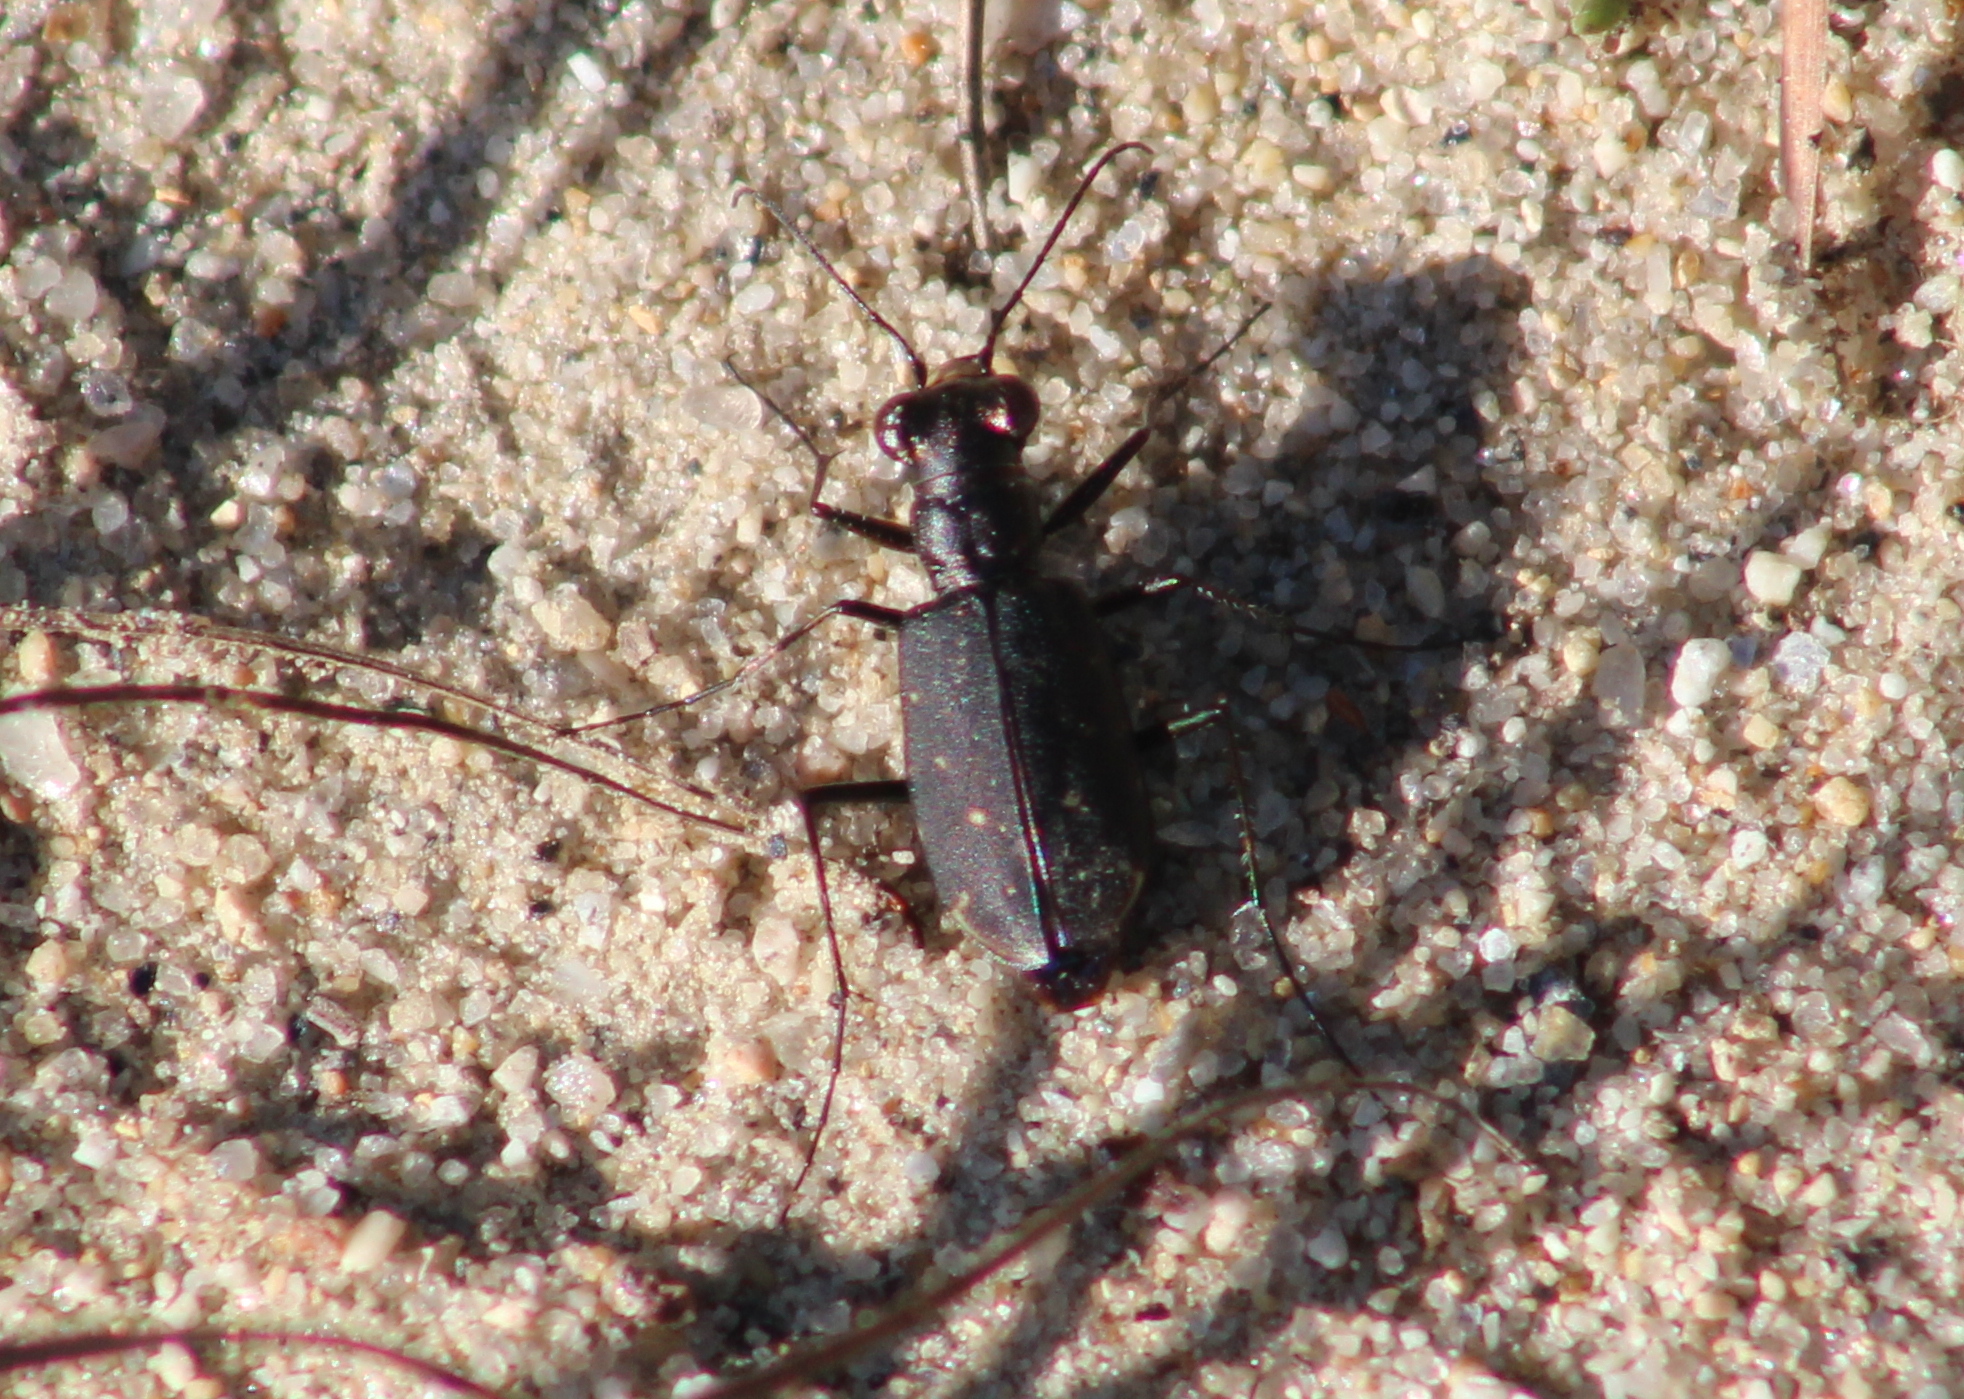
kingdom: Animalia
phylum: Arthropoda
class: Insecta
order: Coleoptera
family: Carabidae
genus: Cicindela
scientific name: Cicindela punctulata
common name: Punctured tiger beetle
